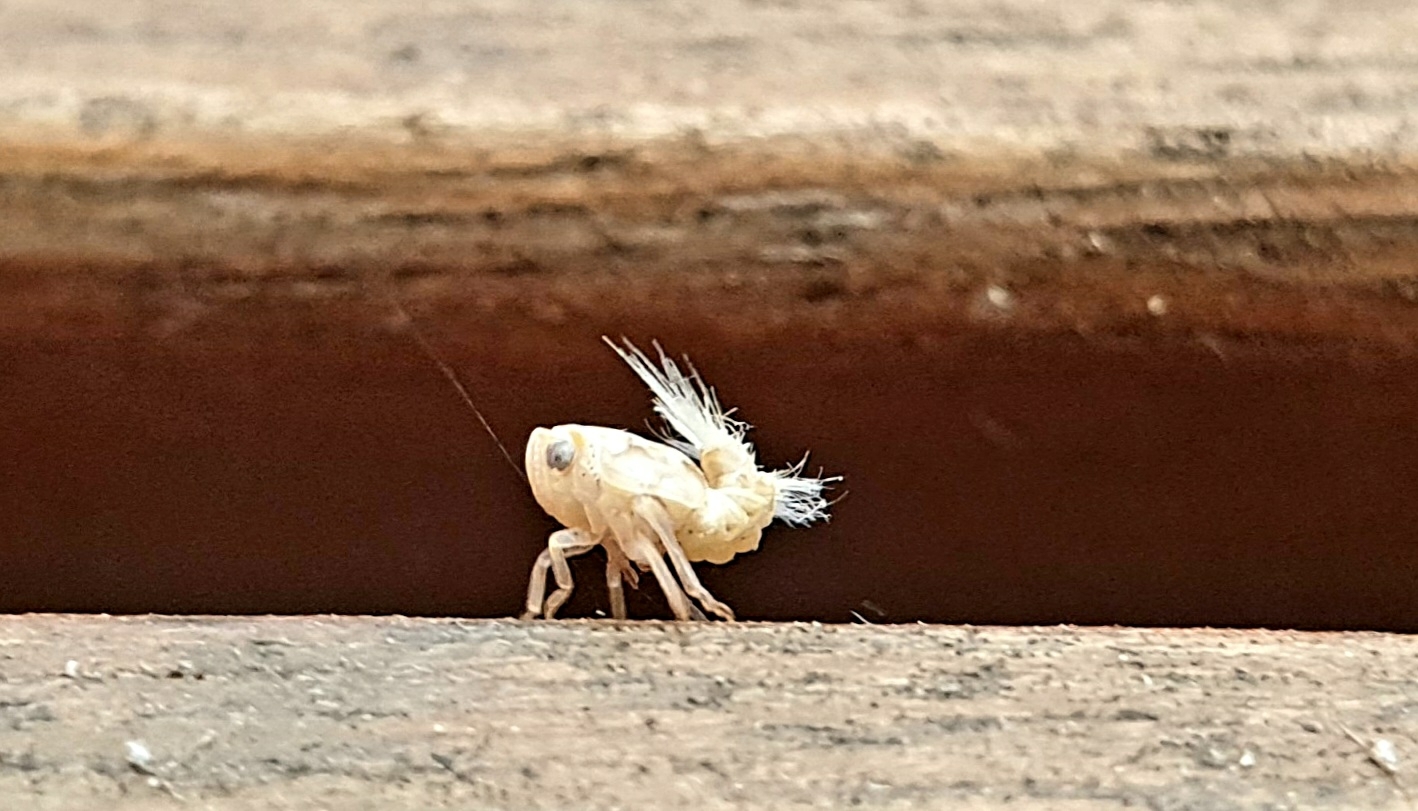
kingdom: Animalia
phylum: Arthropoda
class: Insecta
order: Hemiptera
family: Ricaniidae
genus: Scolypopa
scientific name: Scolypopa australis
